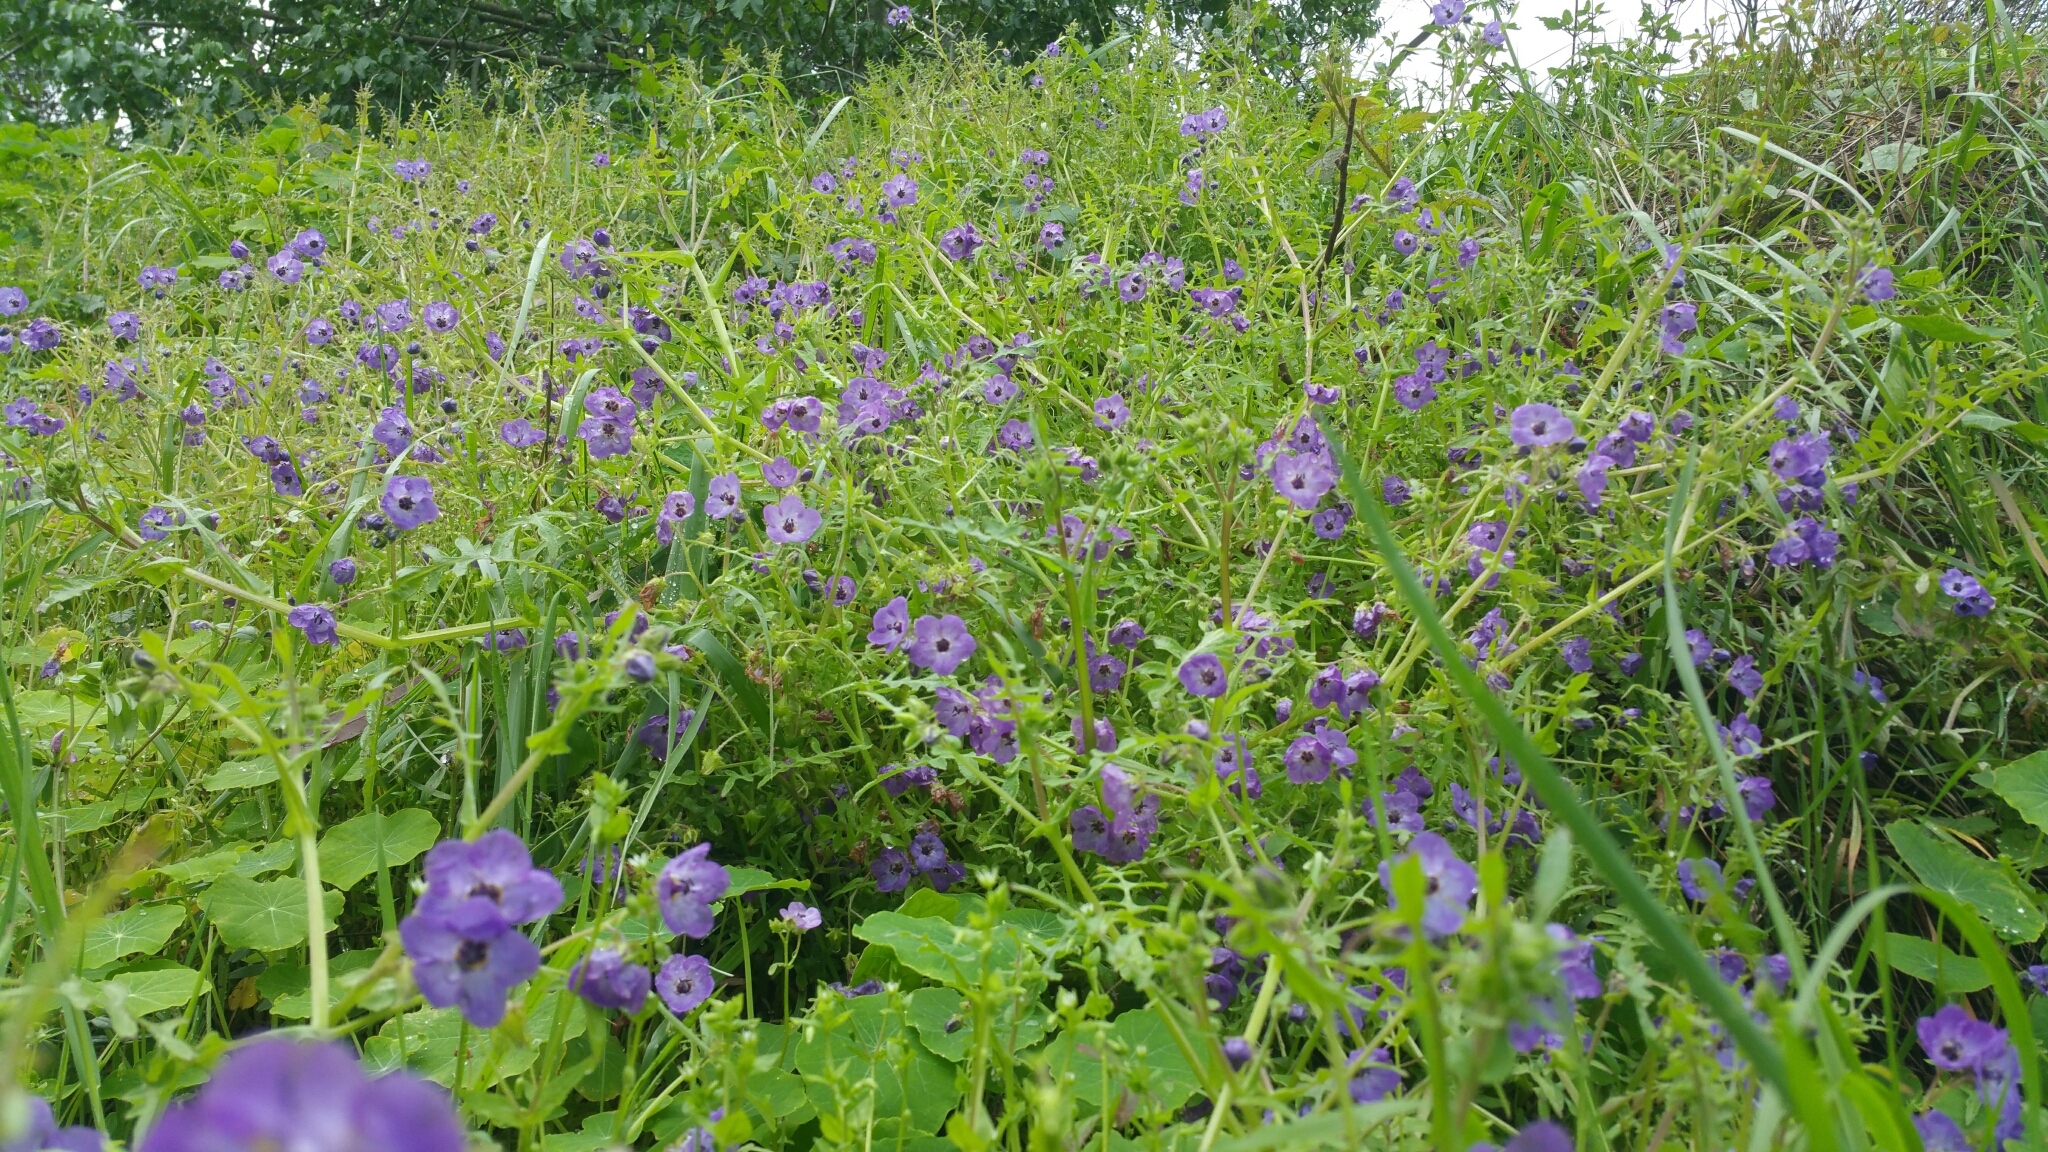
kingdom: Plantae
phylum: Tracheophyta
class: Magnoliopsida
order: Boraginales
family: Hydrophyllaceae
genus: Pholistoma
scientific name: Pholistoma auritum
